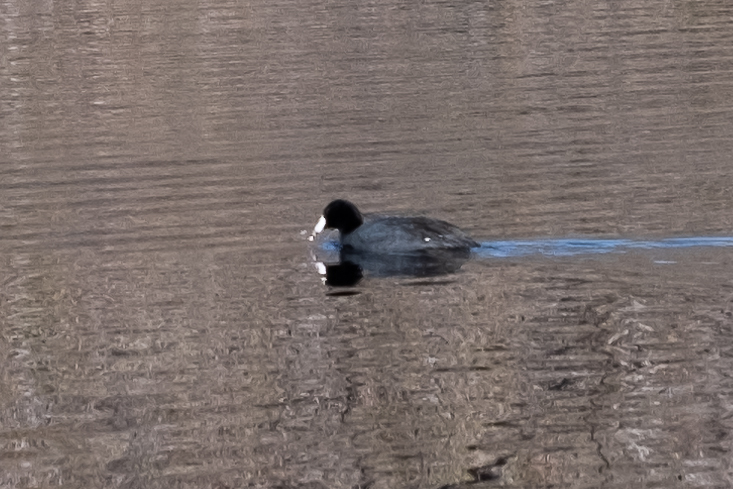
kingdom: Animalia
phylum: Chordata
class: Aves
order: Gruiformes
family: Rallidae
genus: Fulica
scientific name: Fulica americana
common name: American coot
